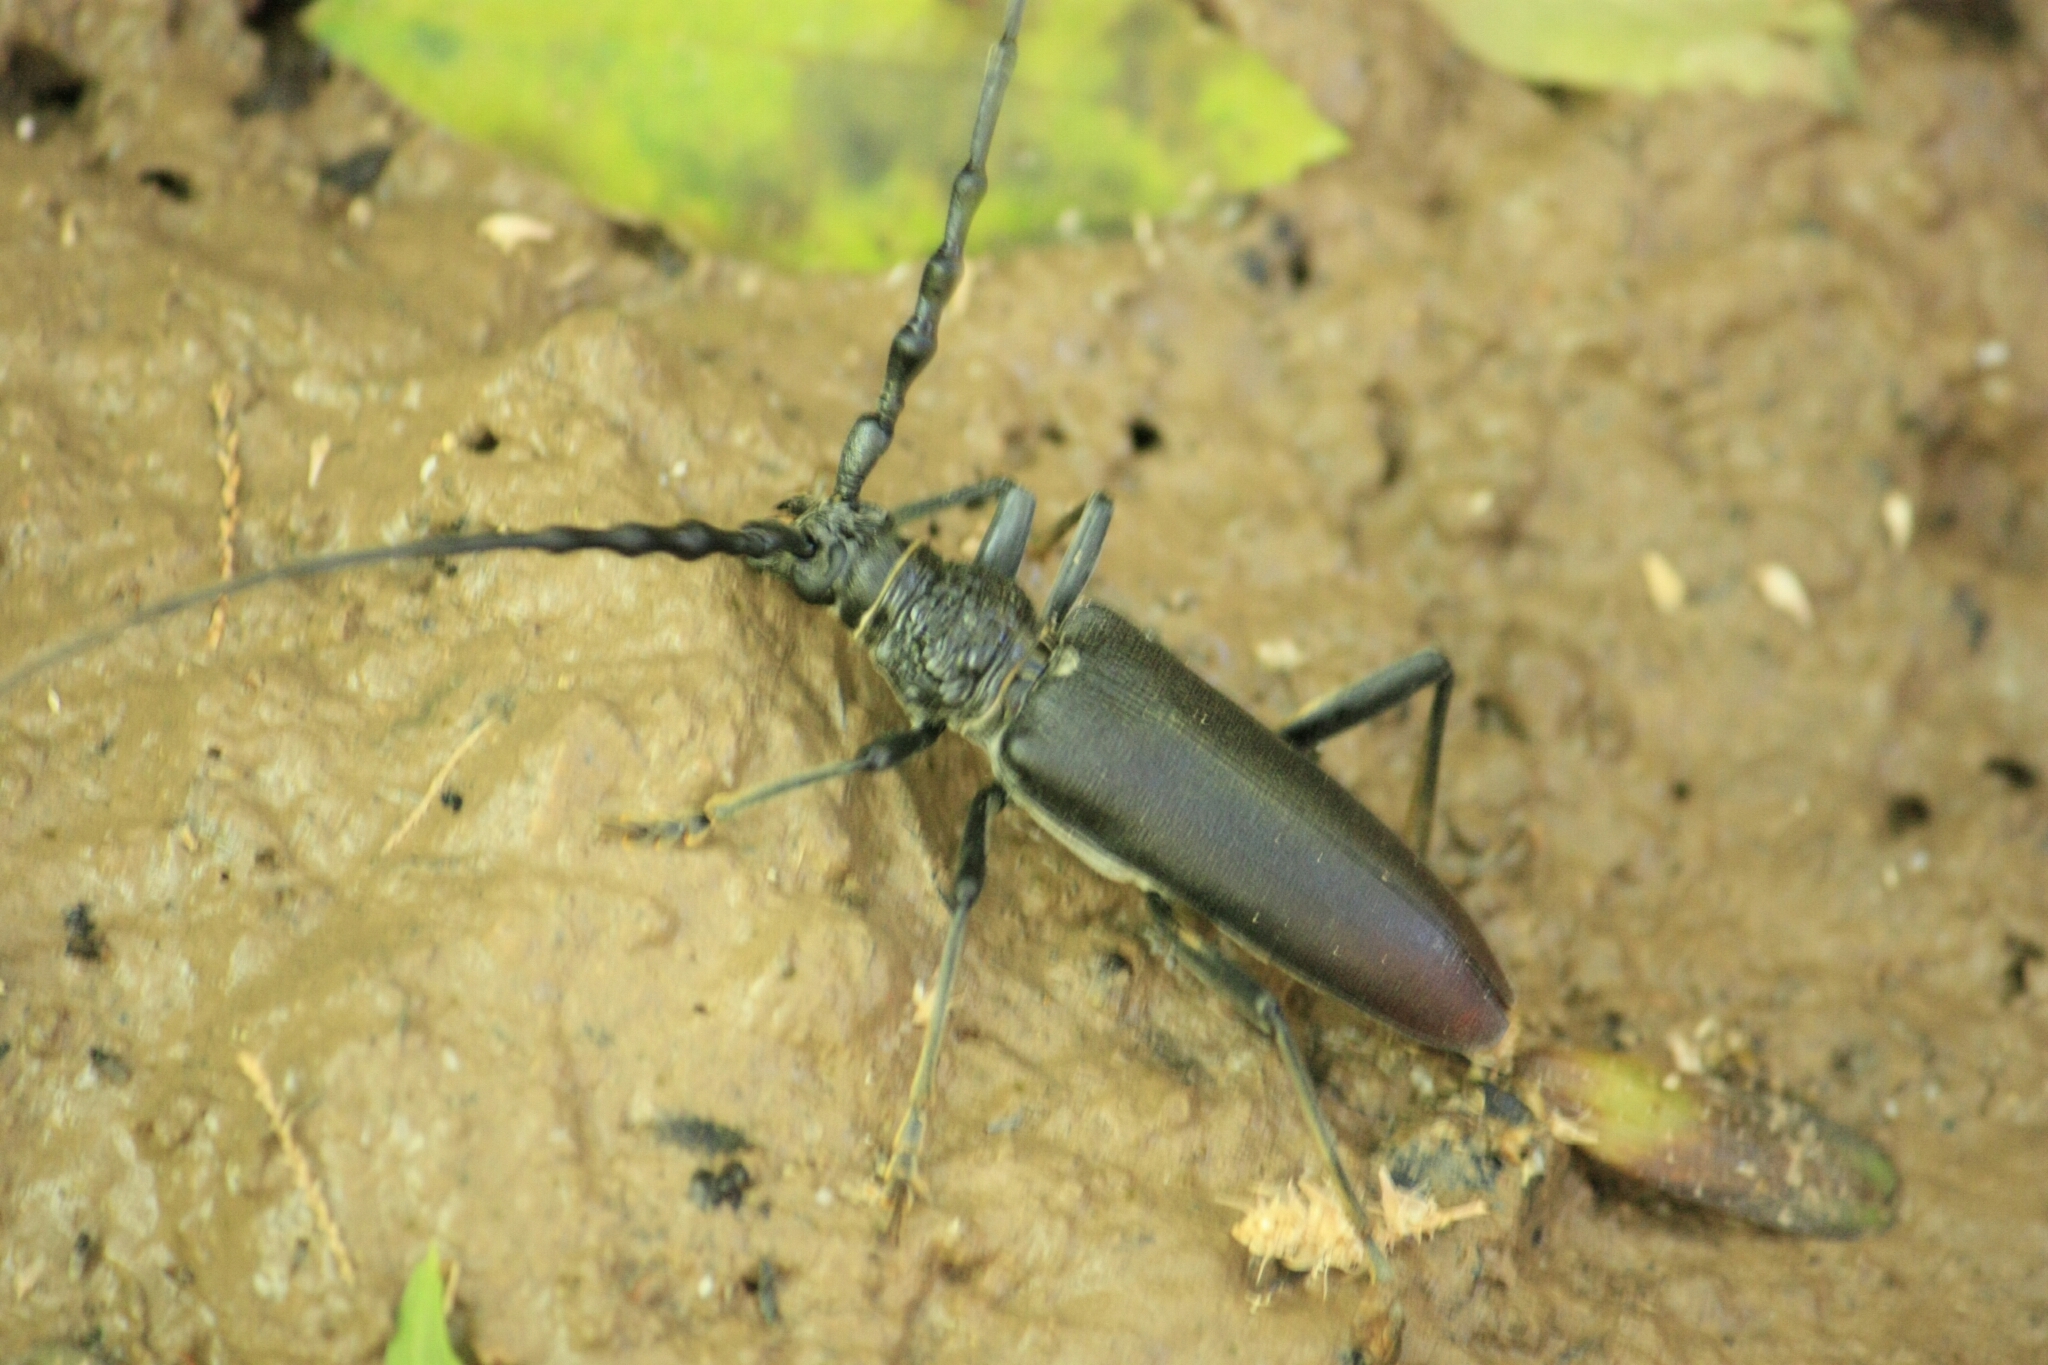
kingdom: Animalia
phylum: Arthropoda
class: Insecta
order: Coleoptera
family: Cerambycidae
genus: Cerambyx
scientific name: Cerambyx cerdo
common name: Cerambyx longicorn
